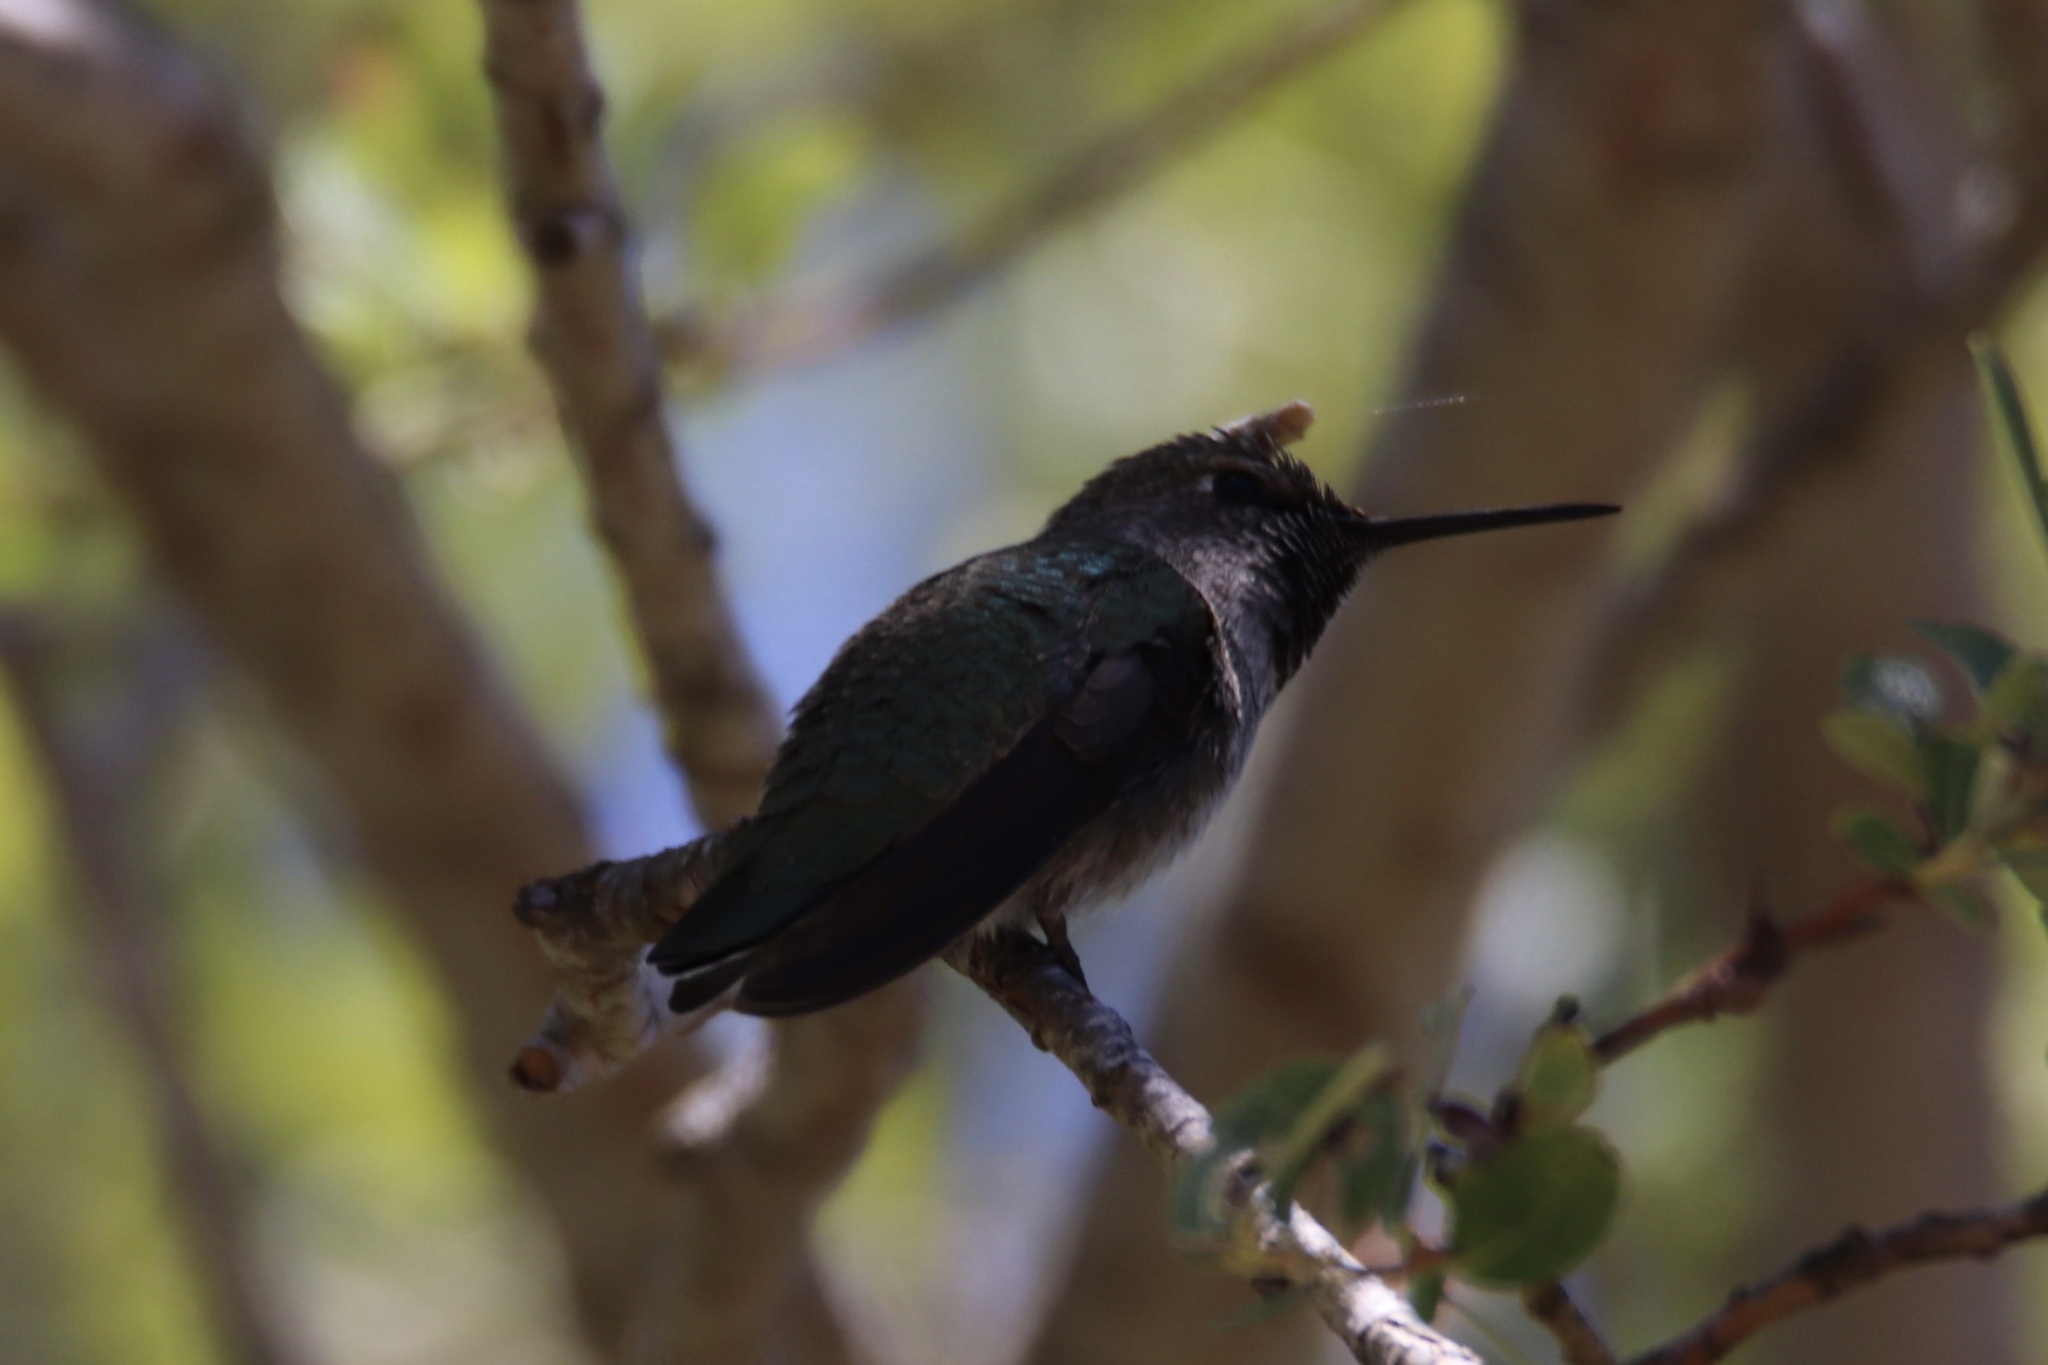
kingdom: Animalia
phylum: Chordata
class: Aves
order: Apodiformes
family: Trochilidae
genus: Calypte
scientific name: Calypte anna
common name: Anna's hummingbird
